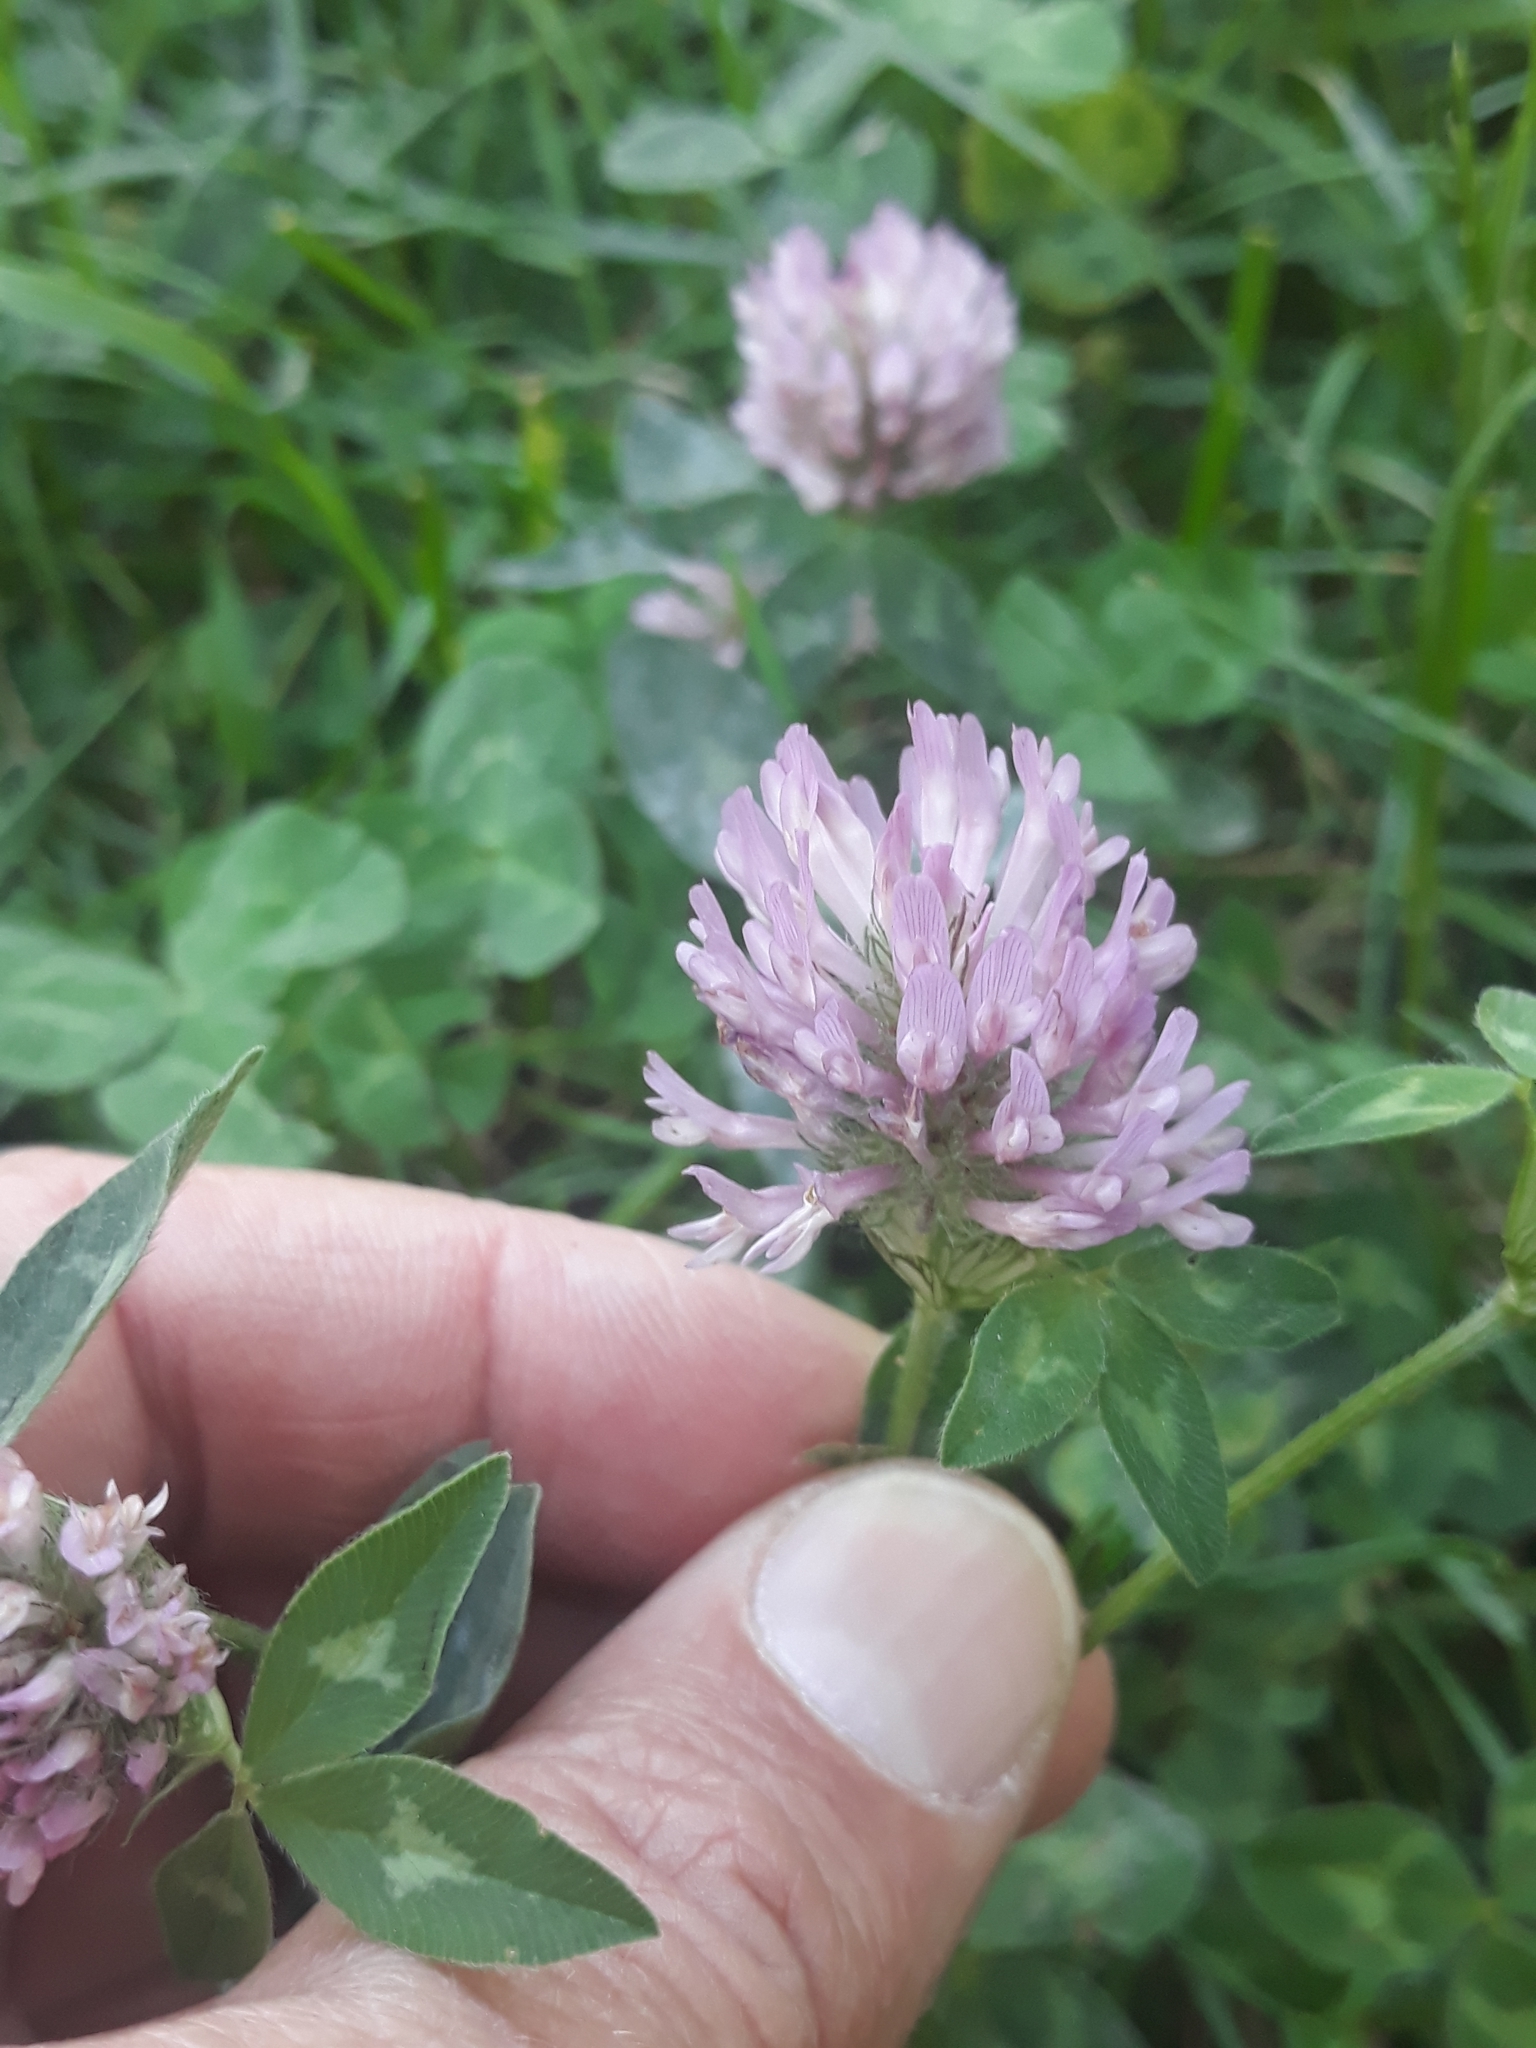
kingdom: Plantae
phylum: Tracheophyta
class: Magnoliopsida
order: Fabales
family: Fabaceae
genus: Trifolium
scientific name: Trifolium pratense
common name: Red clover
